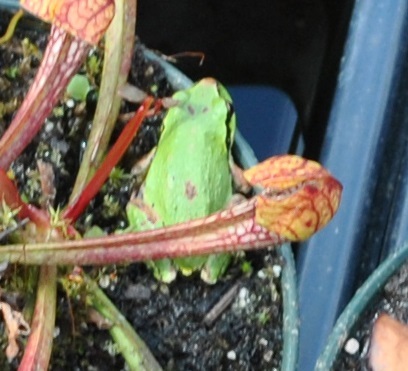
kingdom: Animalia
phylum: Chordata
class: Amphibia
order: Anura
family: Hylidae
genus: Pseudacris
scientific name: Pseudacris regilla
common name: Pacific chorus frog
